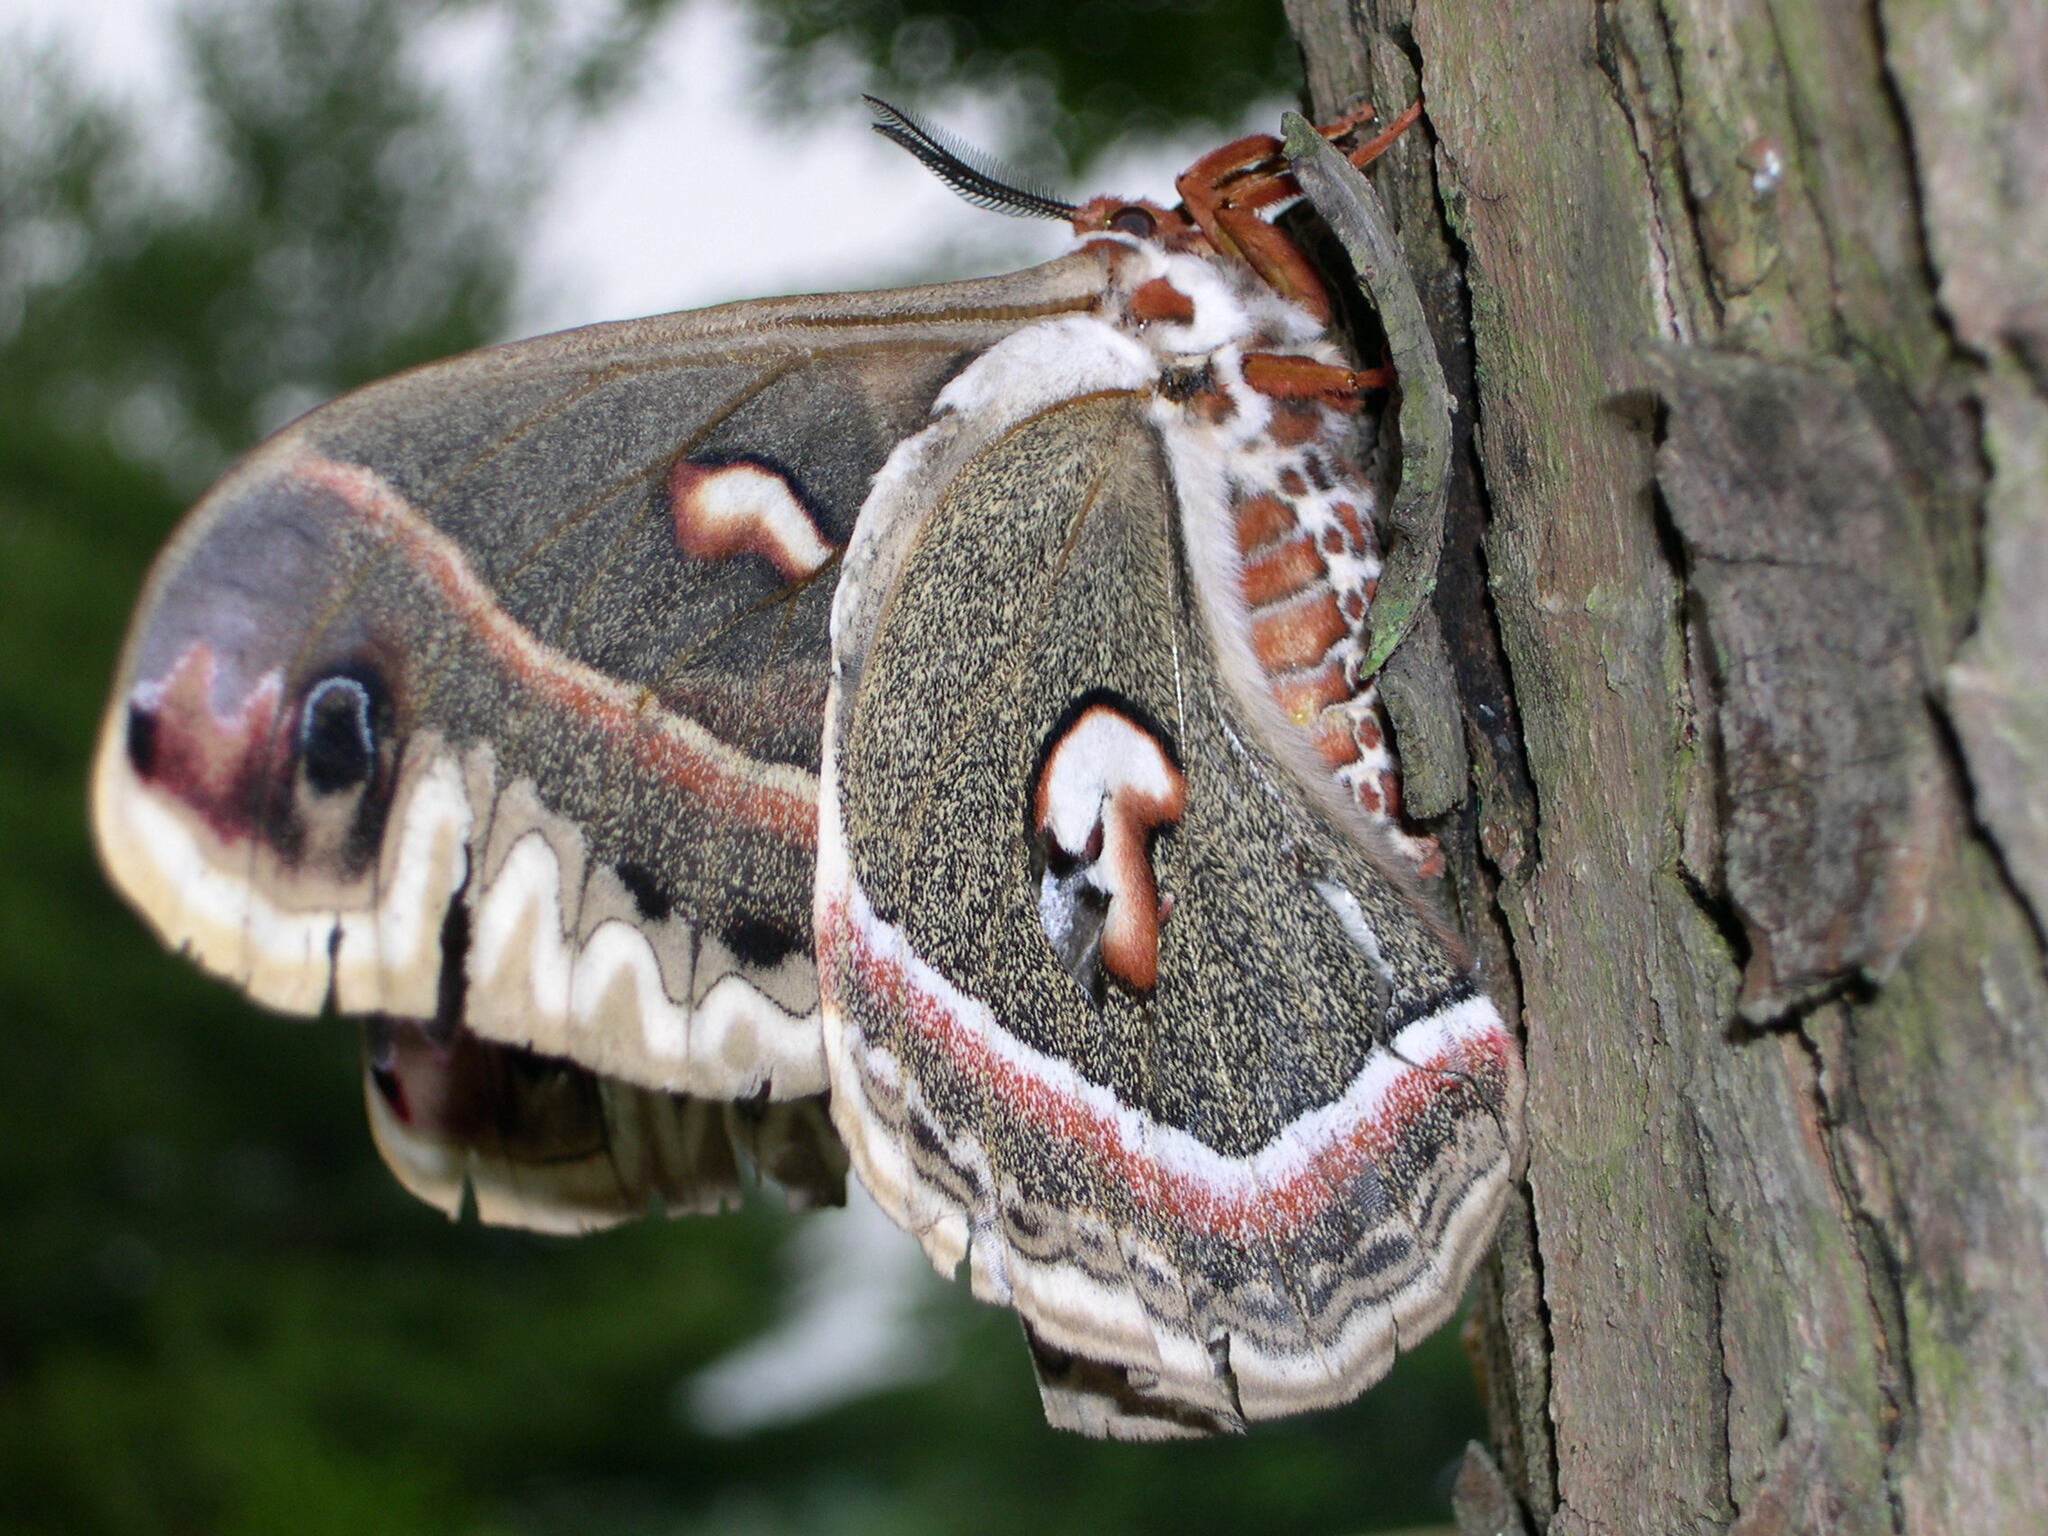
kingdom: Animalia
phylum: Arthropoda
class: Insecta
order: Lepidoptera
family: Saturniidae
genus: Hyalophora
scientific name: Hyalophora cecropia
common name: Cecropia silkmoth
